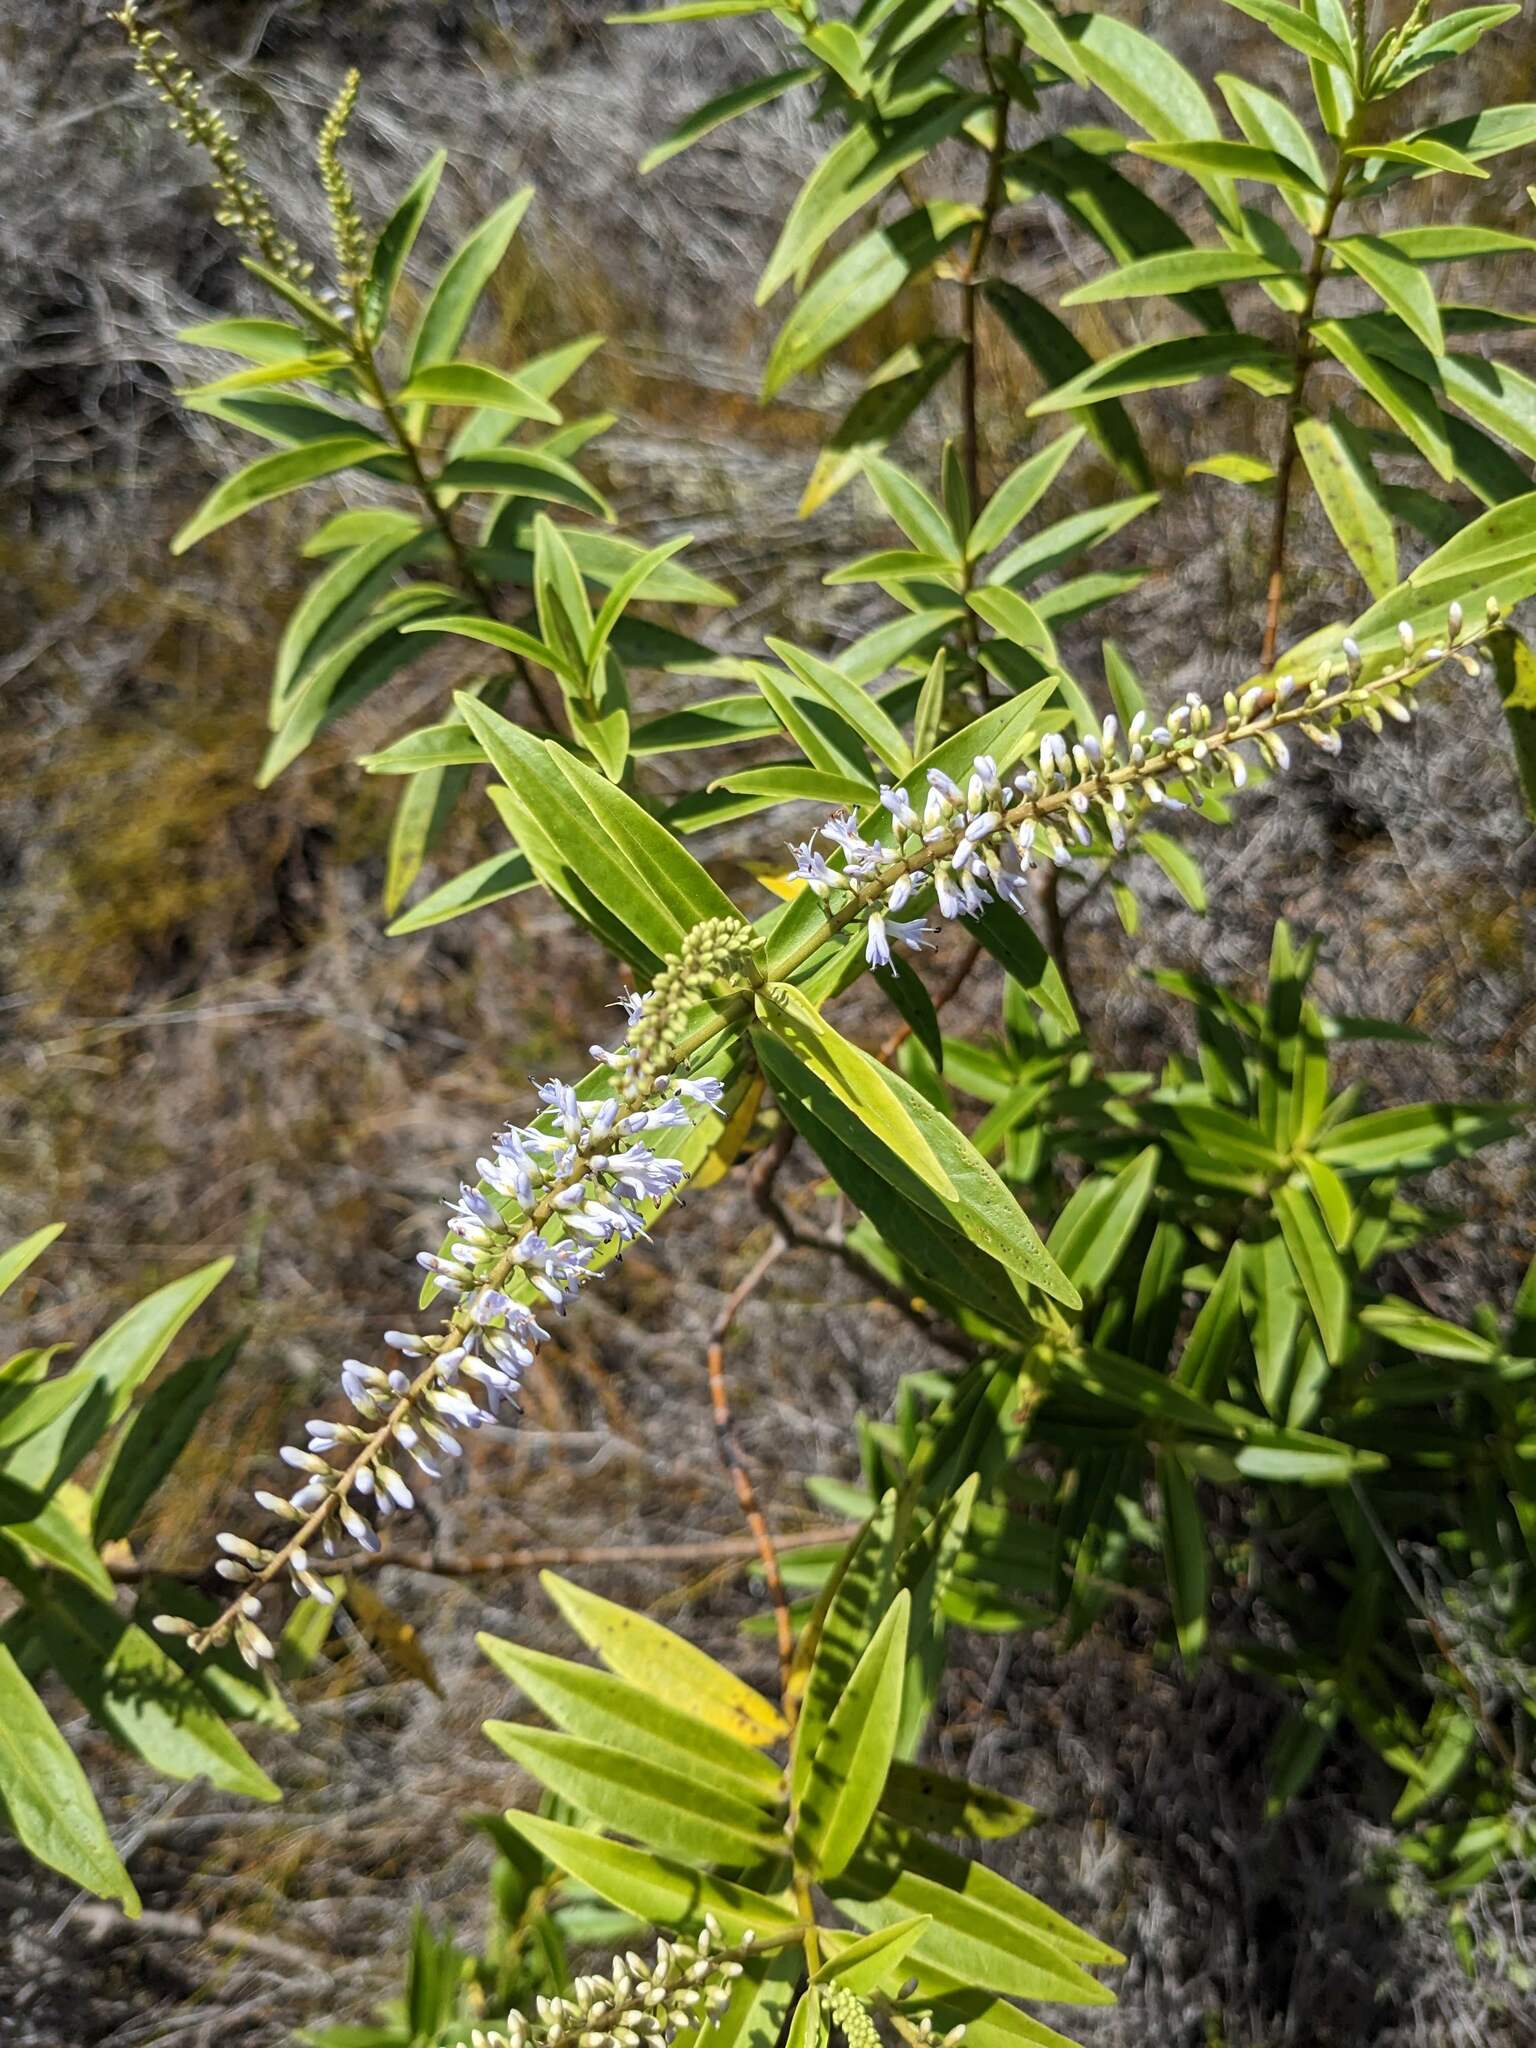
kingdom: Plantae
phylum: Tracheophyta
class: Magnoliopsida
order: Lamiales
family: Plantaginaceae
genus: Veronica
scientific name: Veronica stricta
